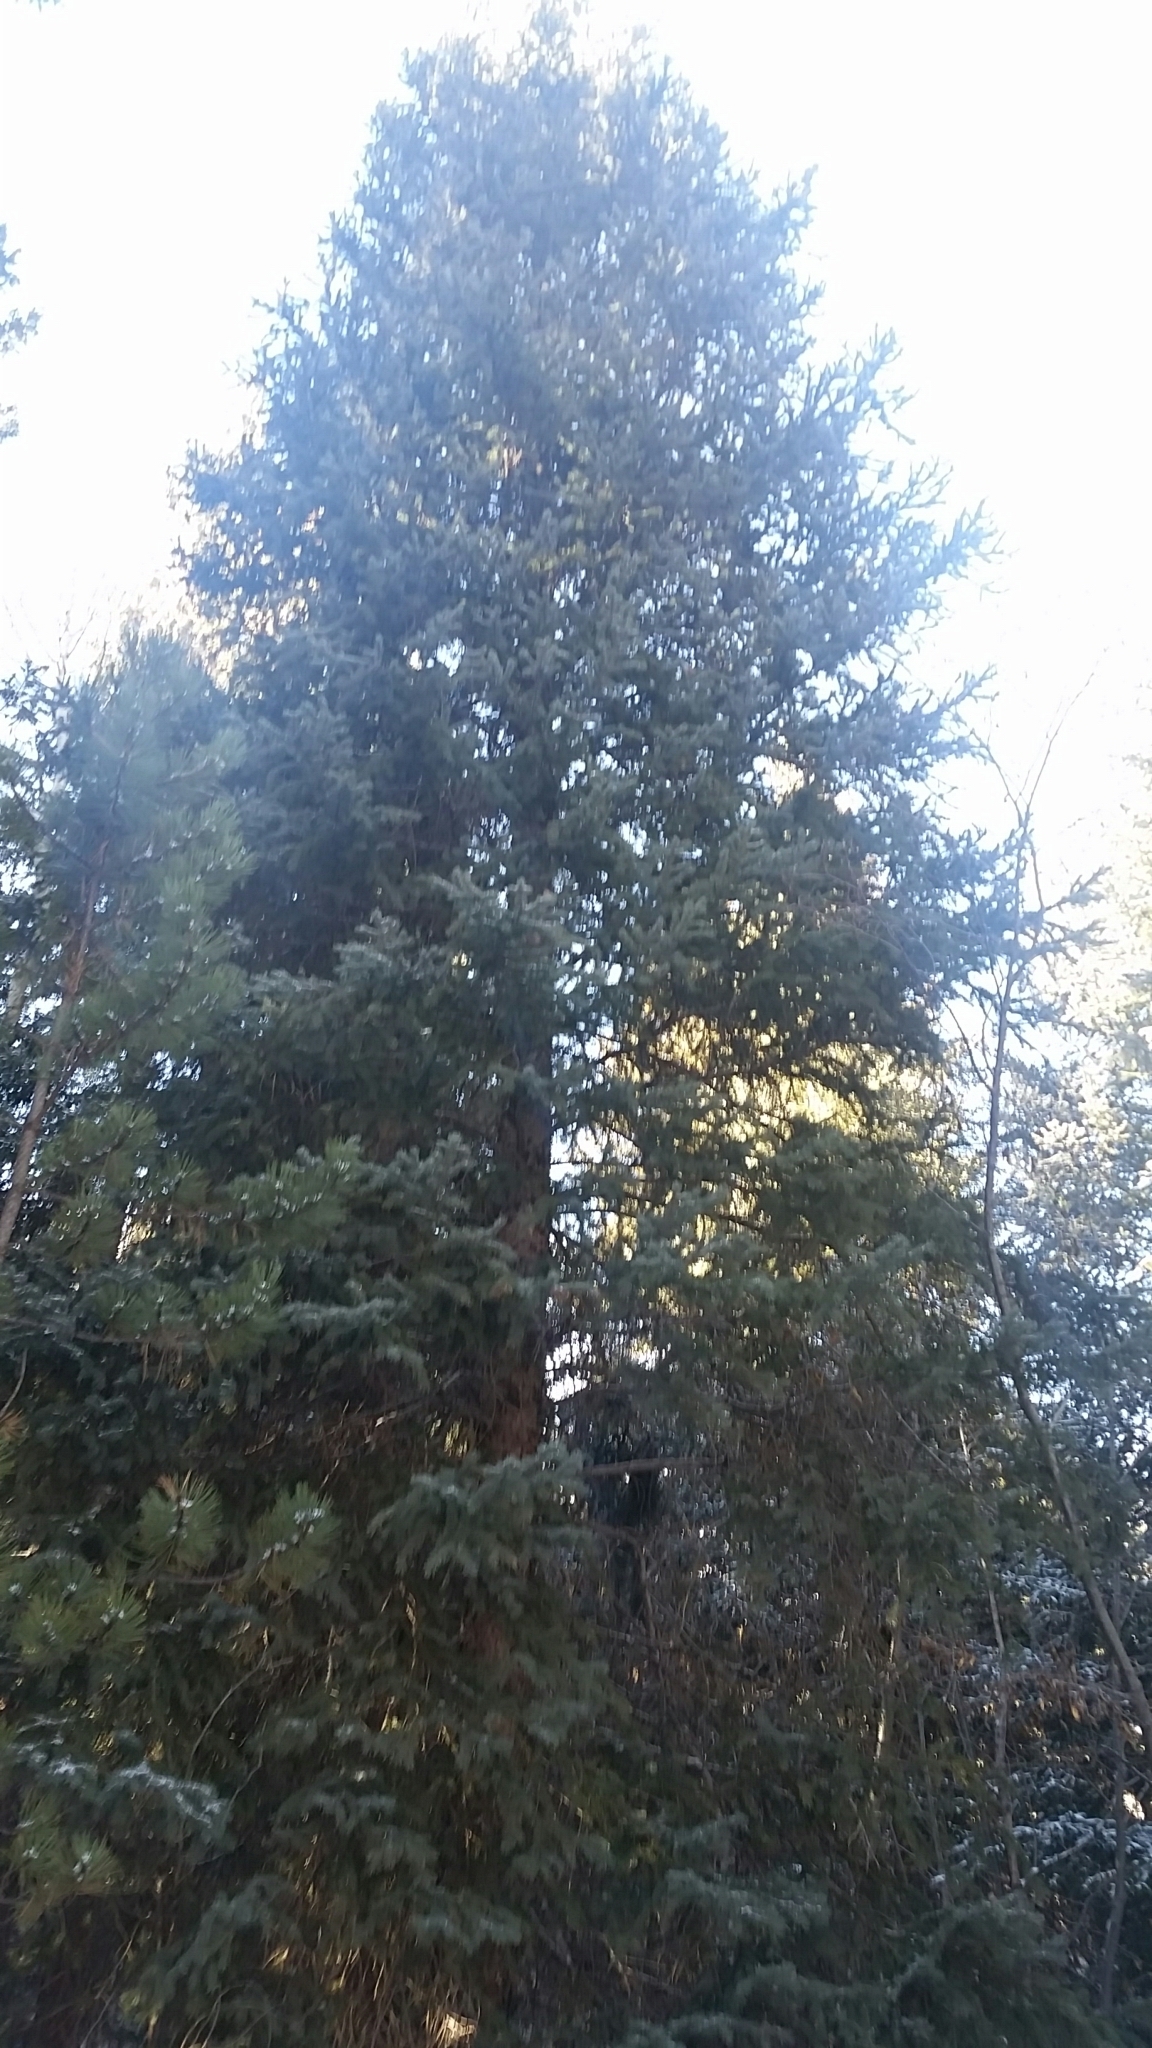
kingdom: Plantae
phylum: Tracheophyta
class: Pinopsida
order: Pinales
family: Pinaceae
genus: Picea
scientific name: Picea engelmannii
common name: Engelmann spruce
